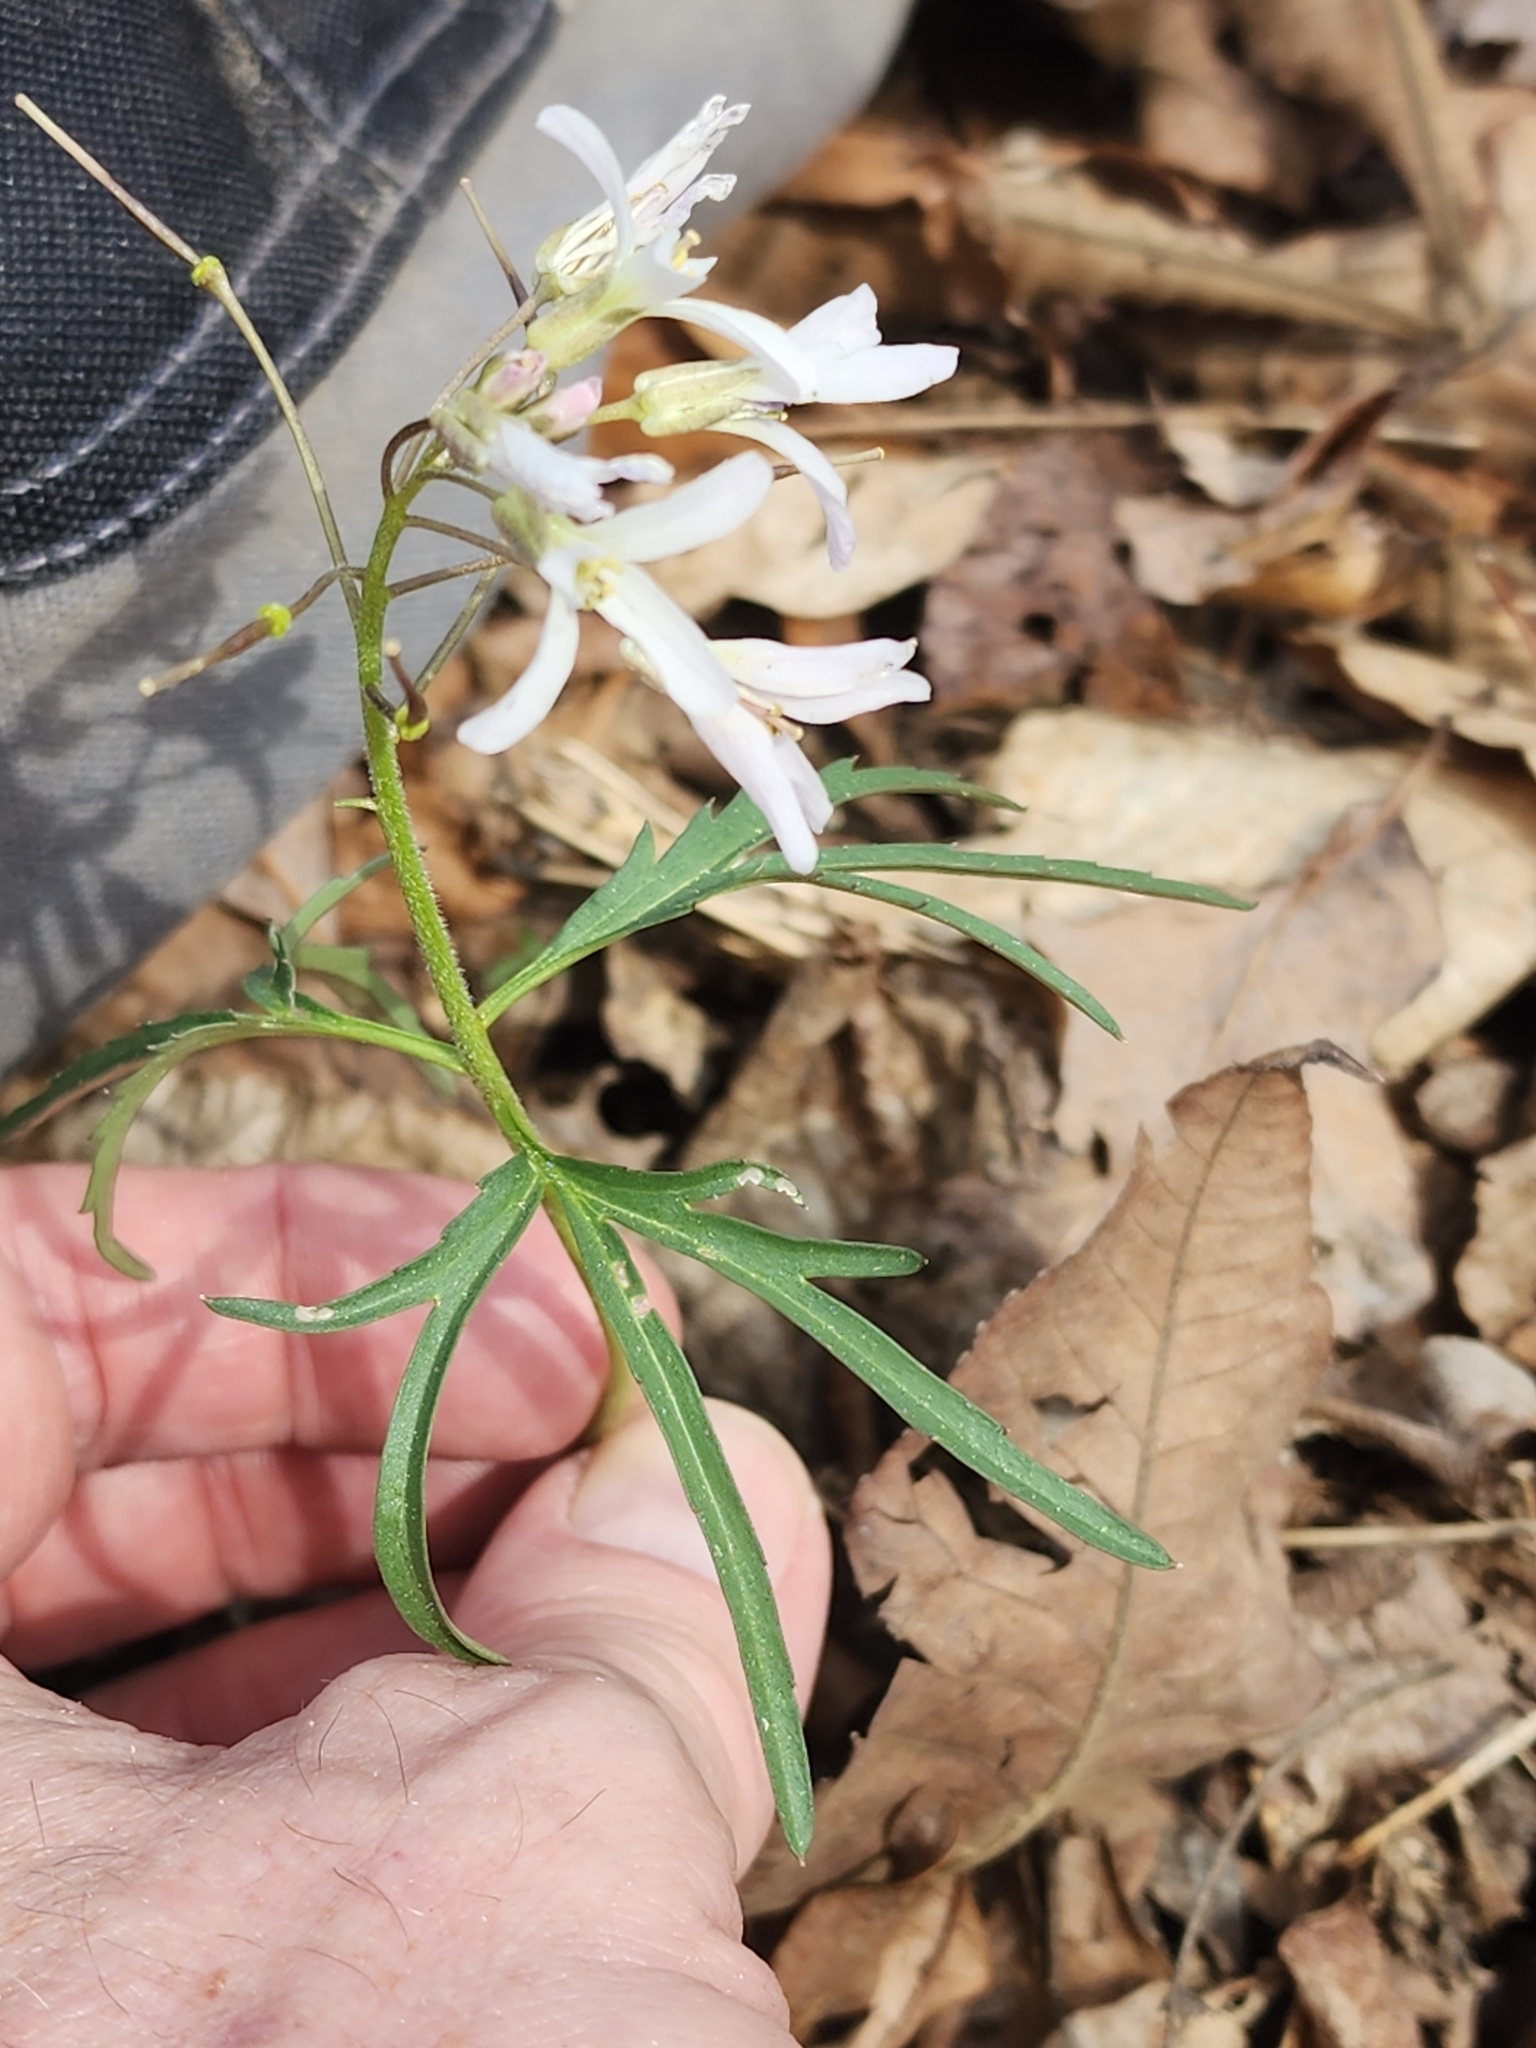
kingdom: Plantae
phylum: Tracheophyta
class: Magnoliopsida
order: Brassicales
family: Brassicaceae
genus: Cardamine
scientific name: Cardamine concatenata
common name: Cut-leaf toothcup
